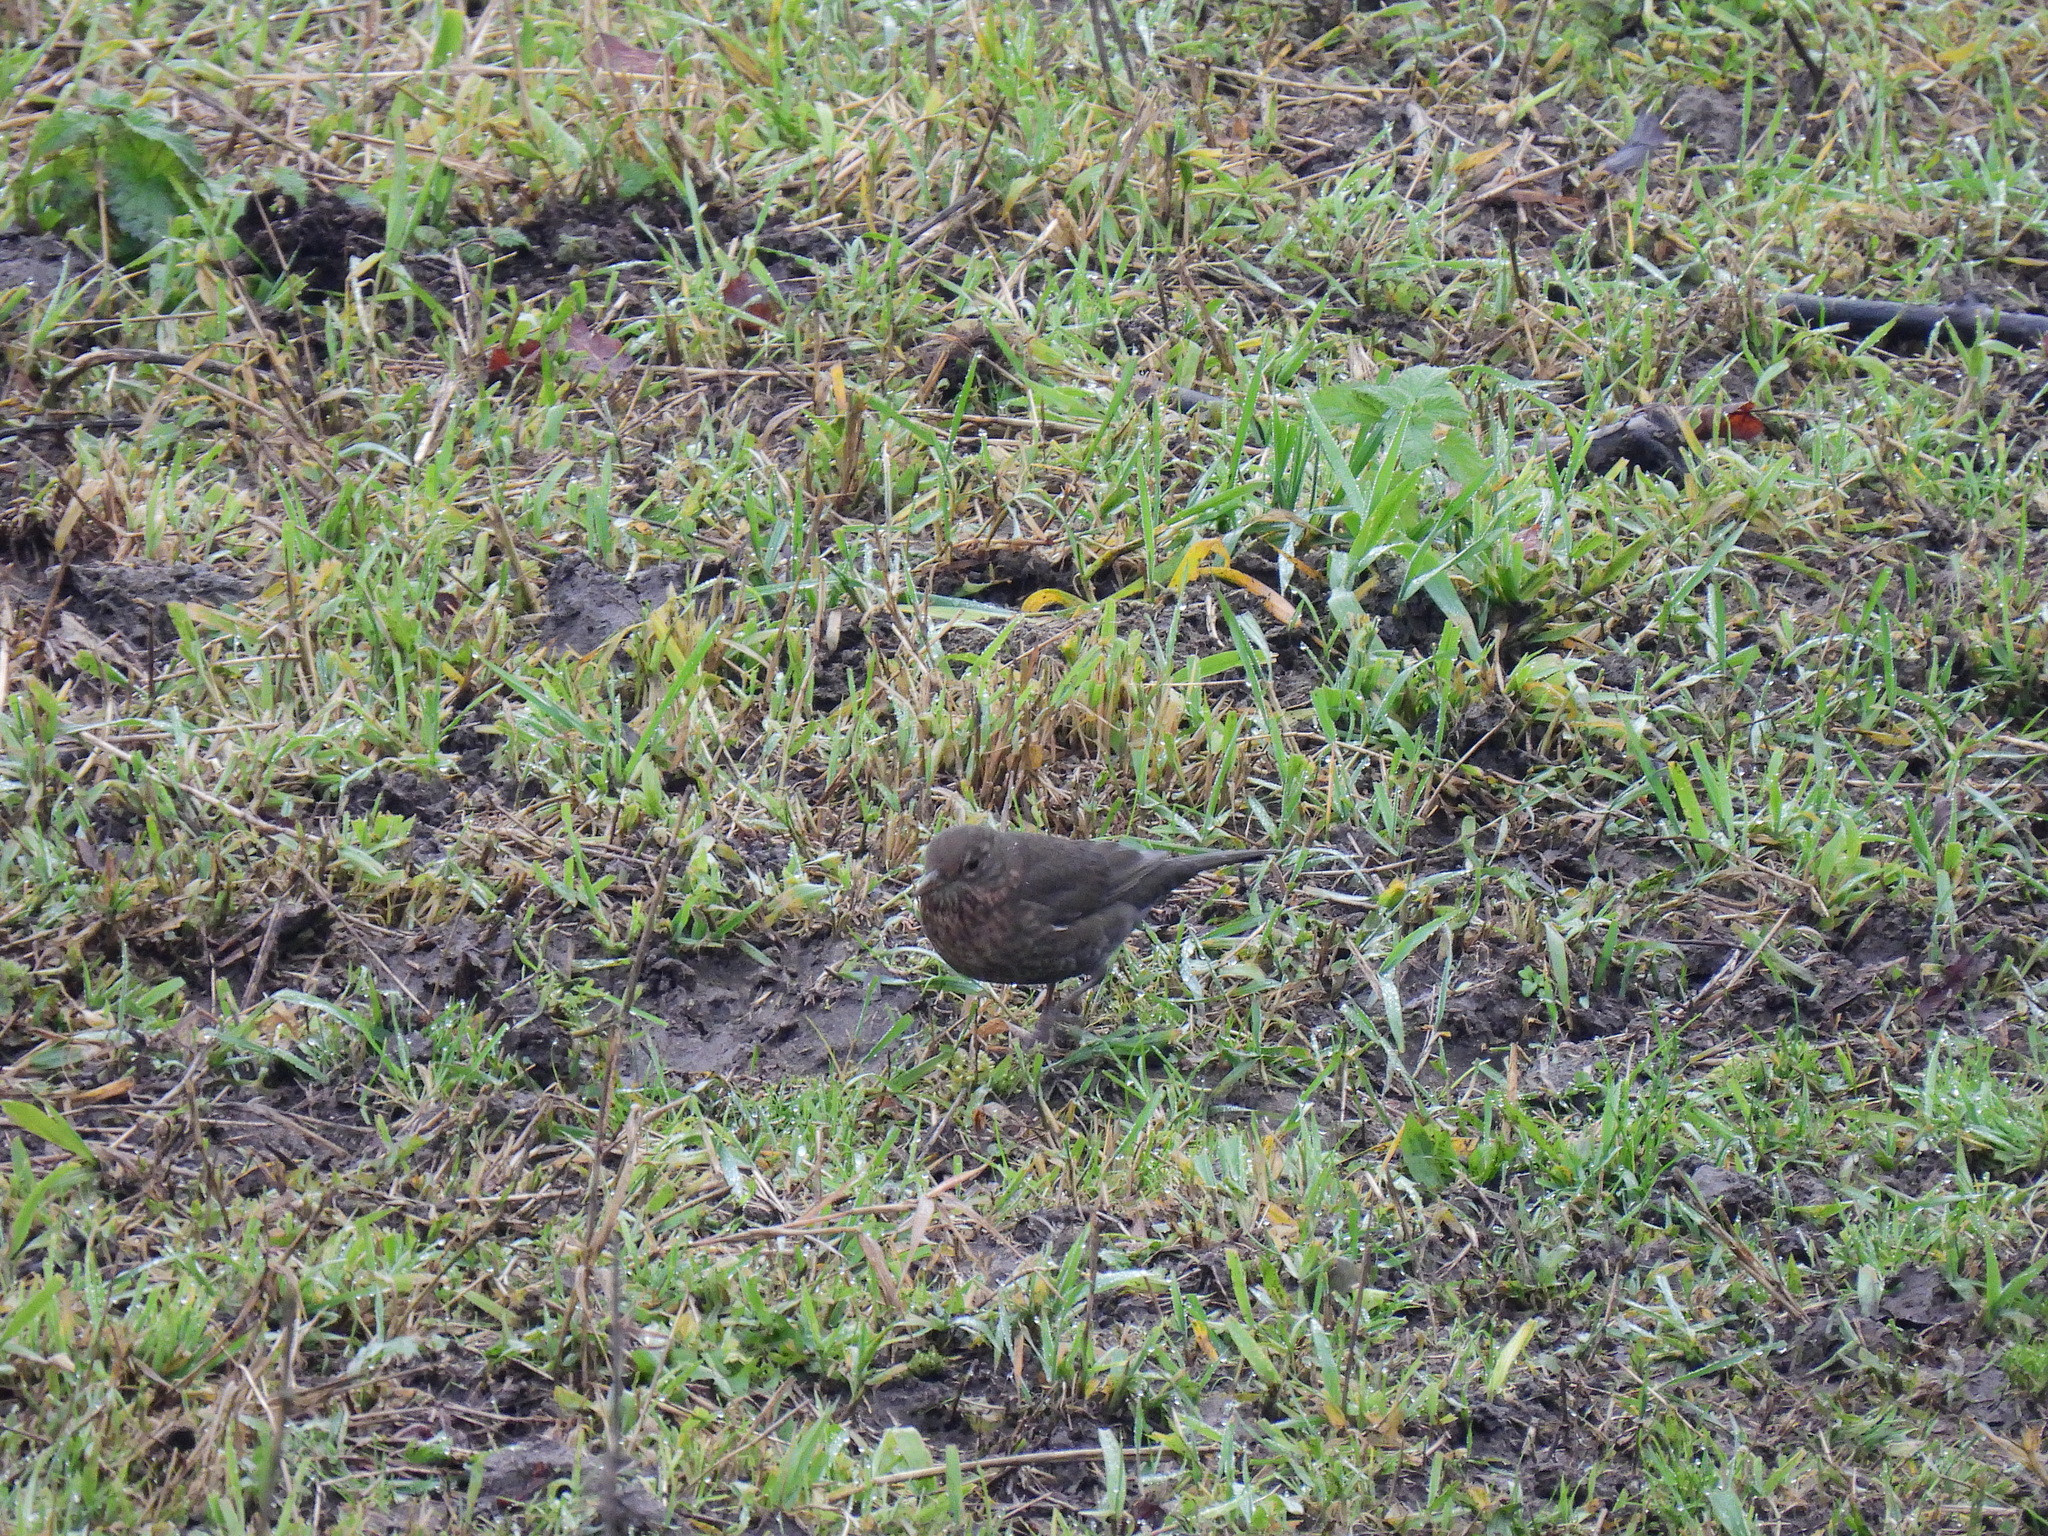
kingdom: Animalia
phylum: Chordata
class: Aves
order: Passeriformes
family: Turdidae
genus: Turdus
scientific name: Turdus merula
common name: Common blackbird
